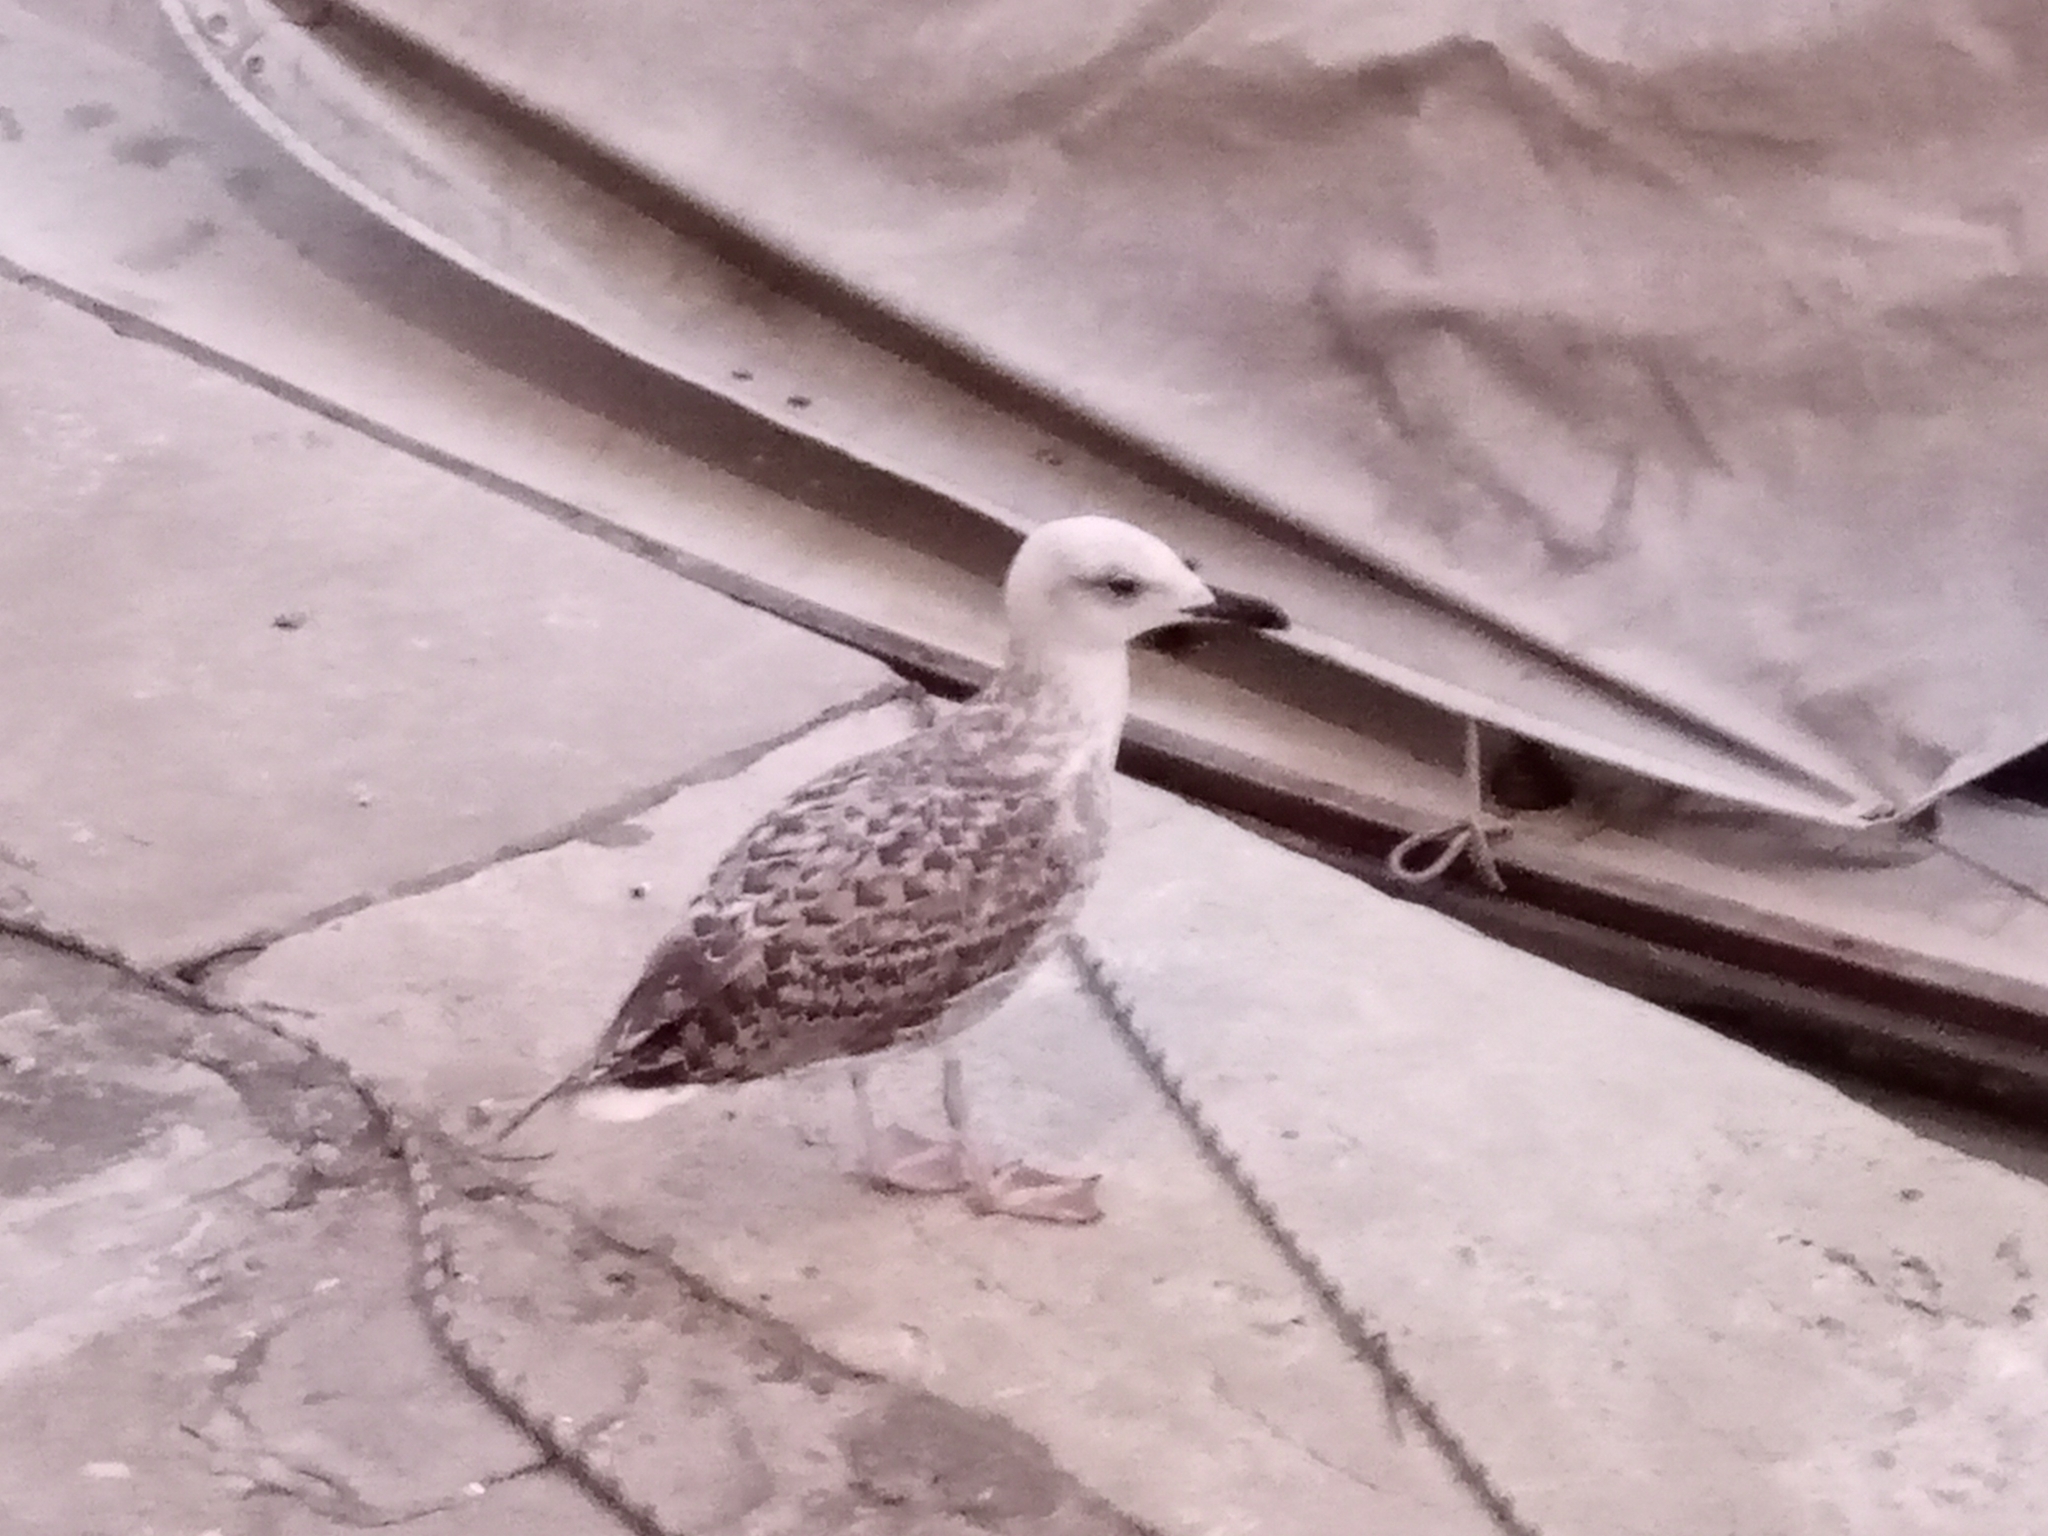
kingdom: Animalia
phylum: Chordata
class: Aves
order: Charadriiformes
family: Laridae
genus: Larus
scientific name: Larus michahellis
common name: Yellow-legged gull
